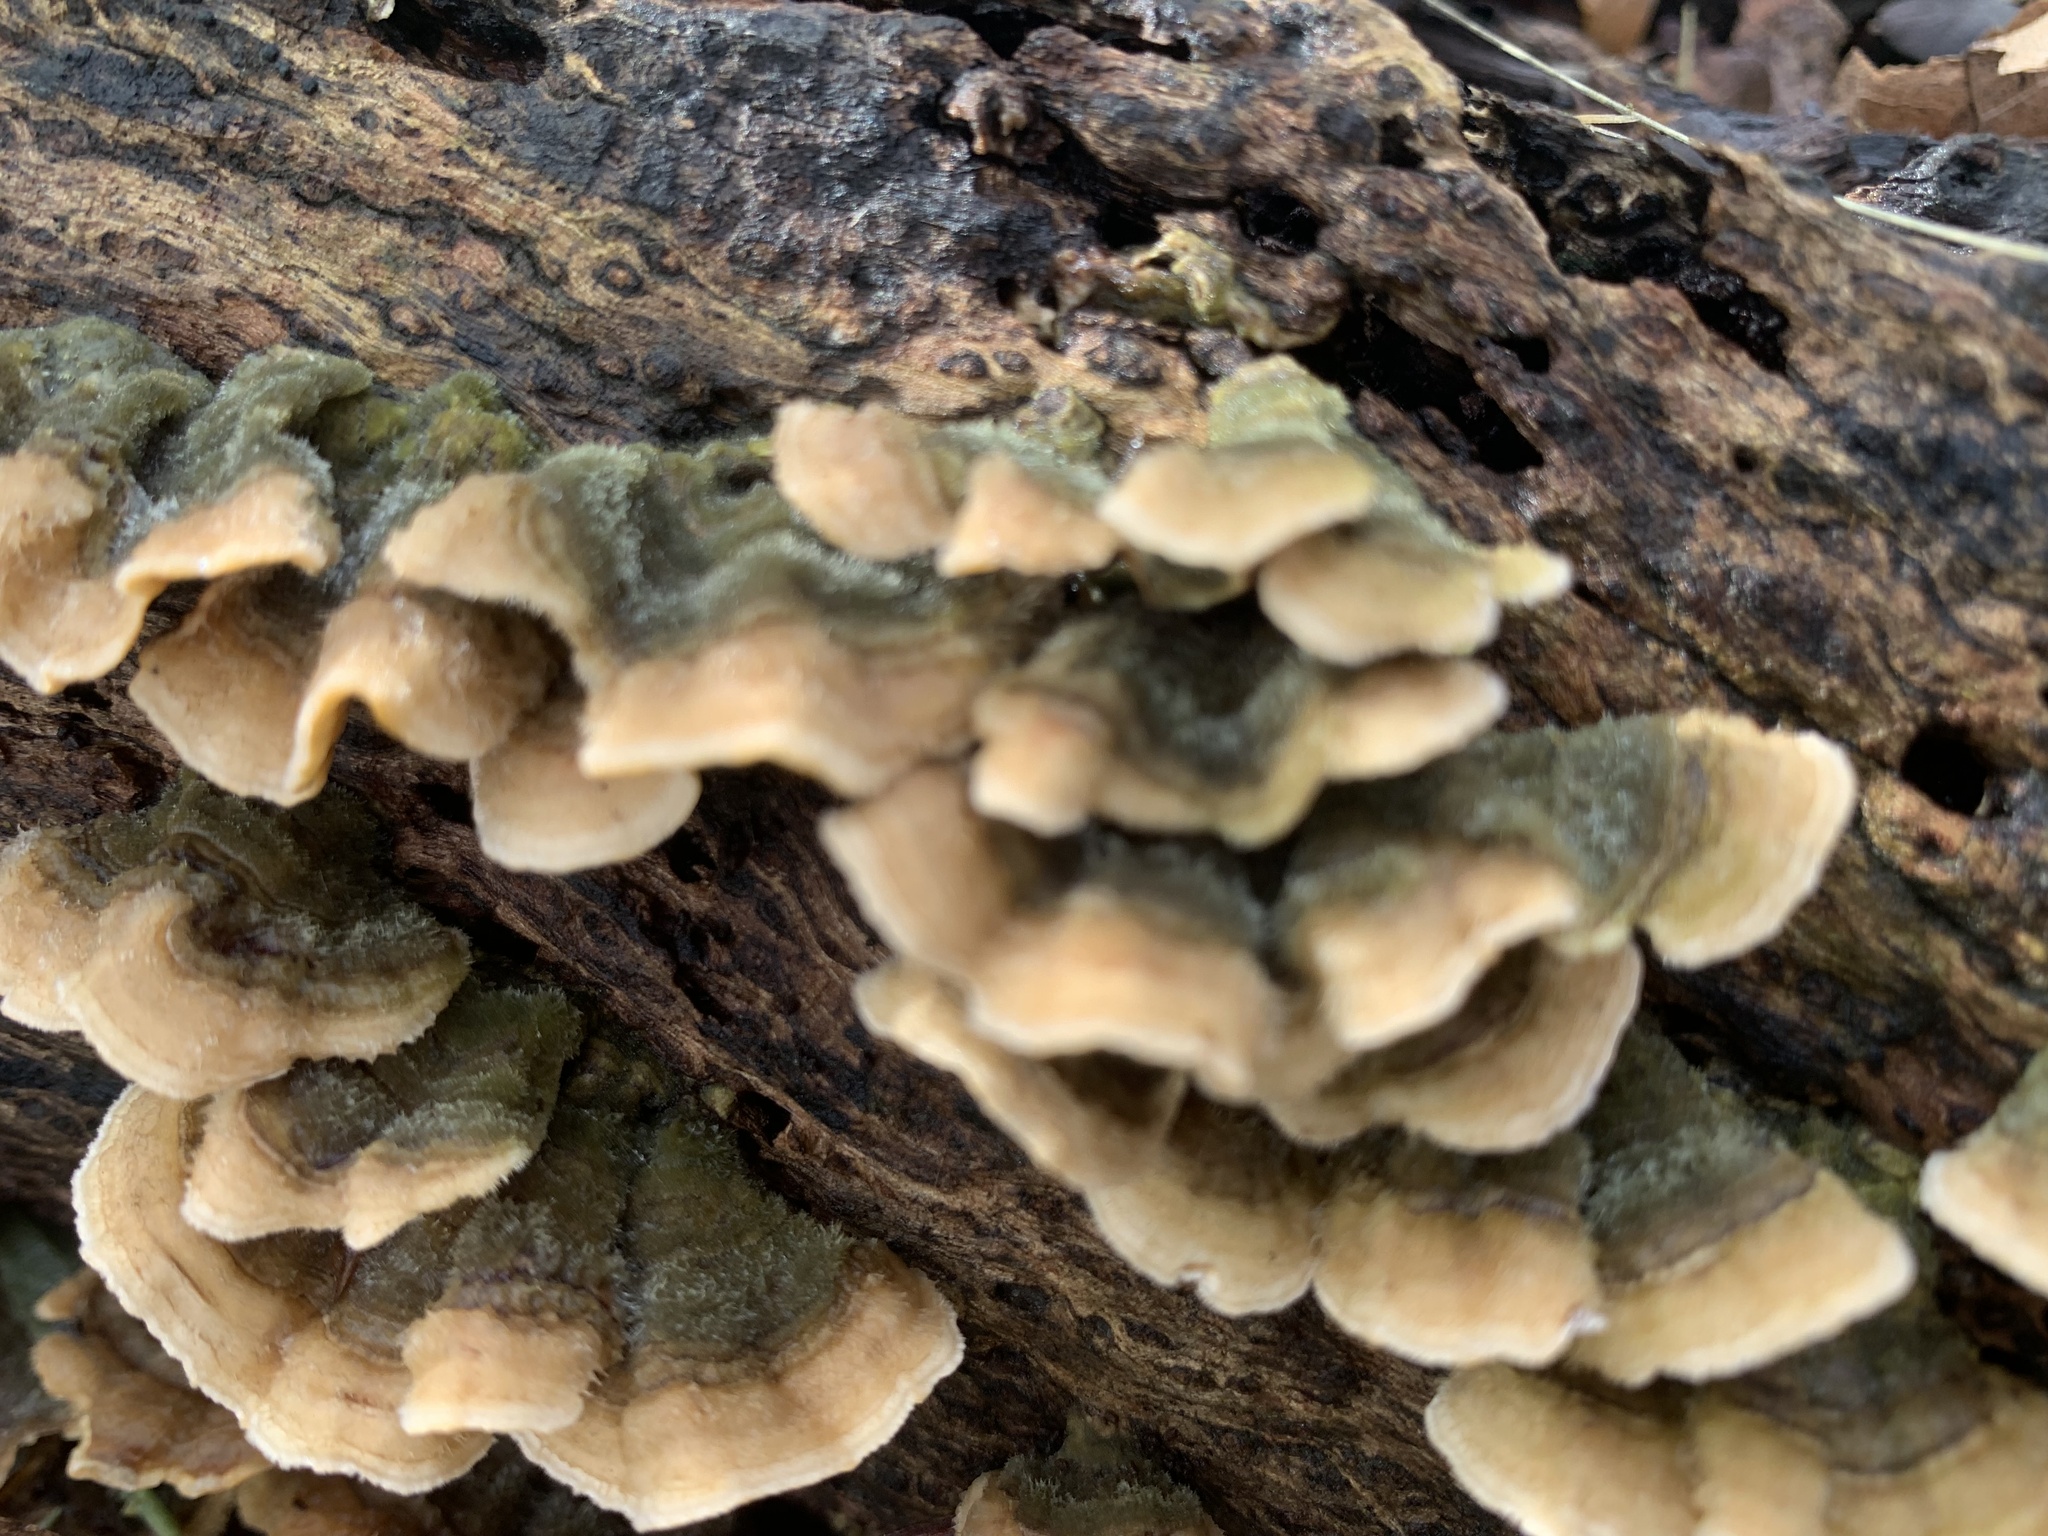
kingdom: Fungi
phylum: Basidiomycota
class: Agaricomycetes
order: Russulales
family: Stereaceae
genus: Stereum
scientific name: Stereum hirsutum
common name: Hairy curtain crust
